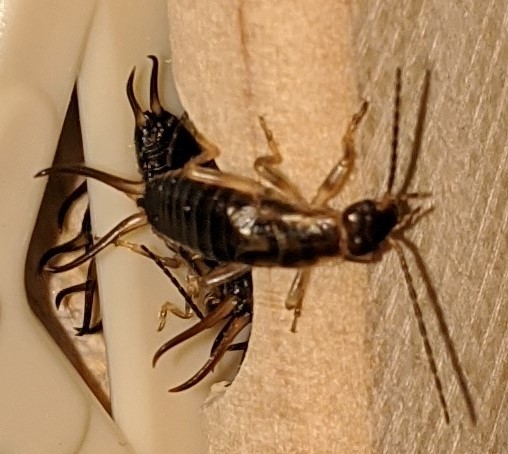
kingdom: Animalia
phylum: Arthropoda
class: Insecta
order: Dermaptera
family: Forficulidae
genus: Forficula
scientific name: Forficula
